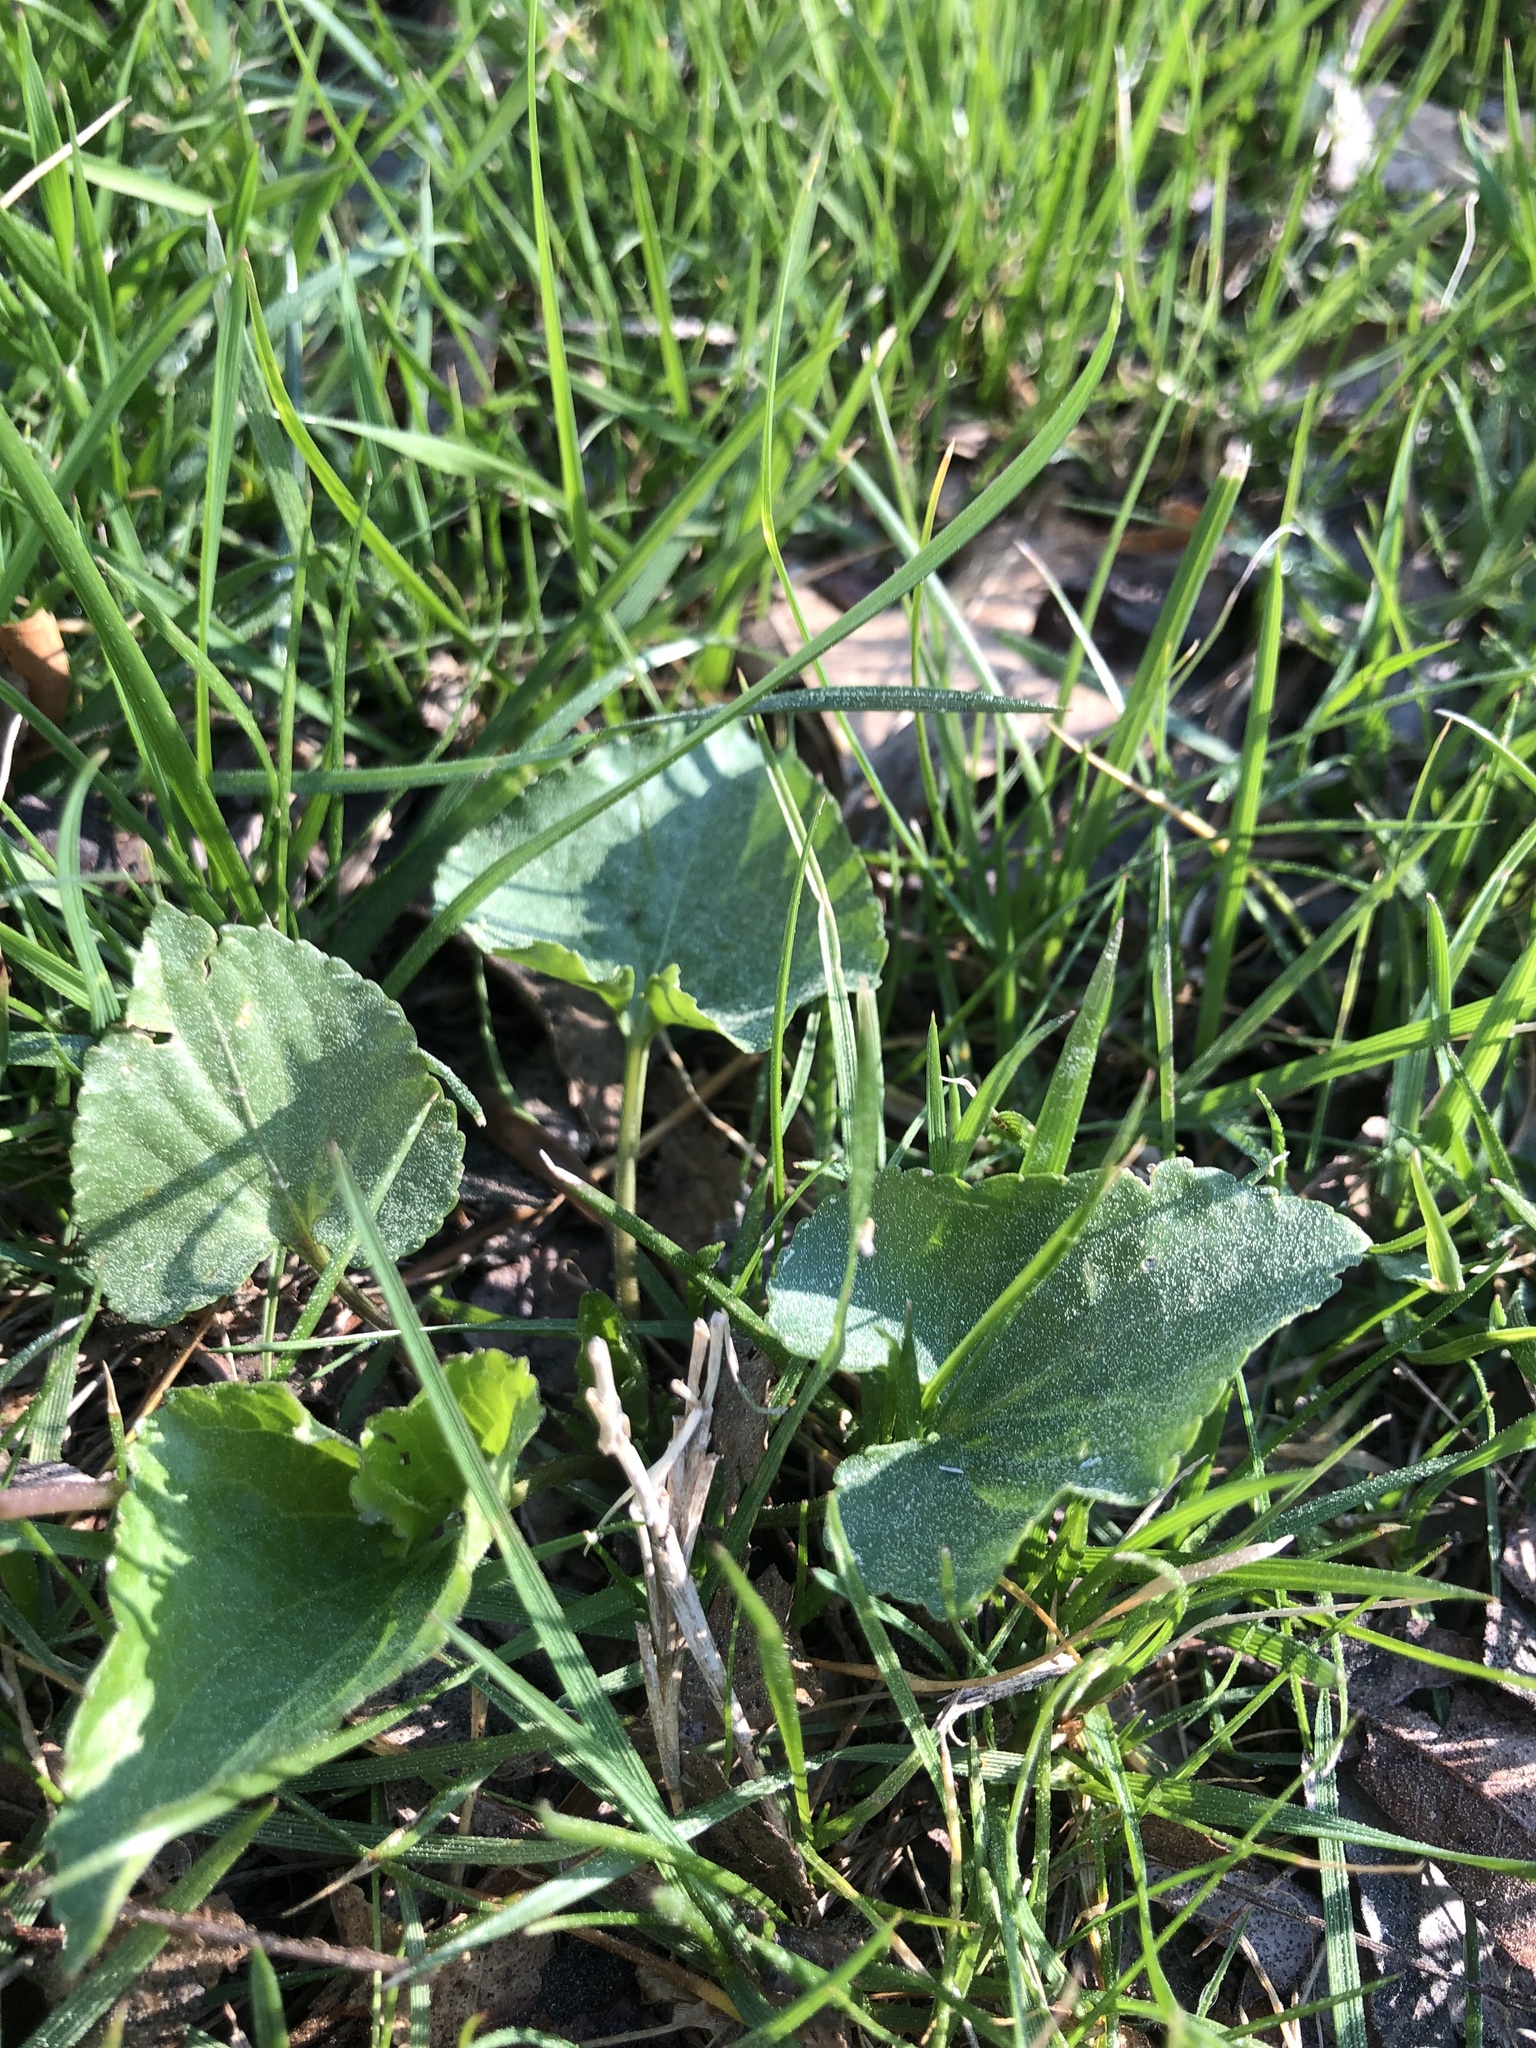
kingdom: Plantae
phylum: Tracheophyta
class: Magnoliopsida
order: Malpighiales
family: Violaceae
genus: Viola
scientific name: Viola sororia
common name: Dooryard violet
